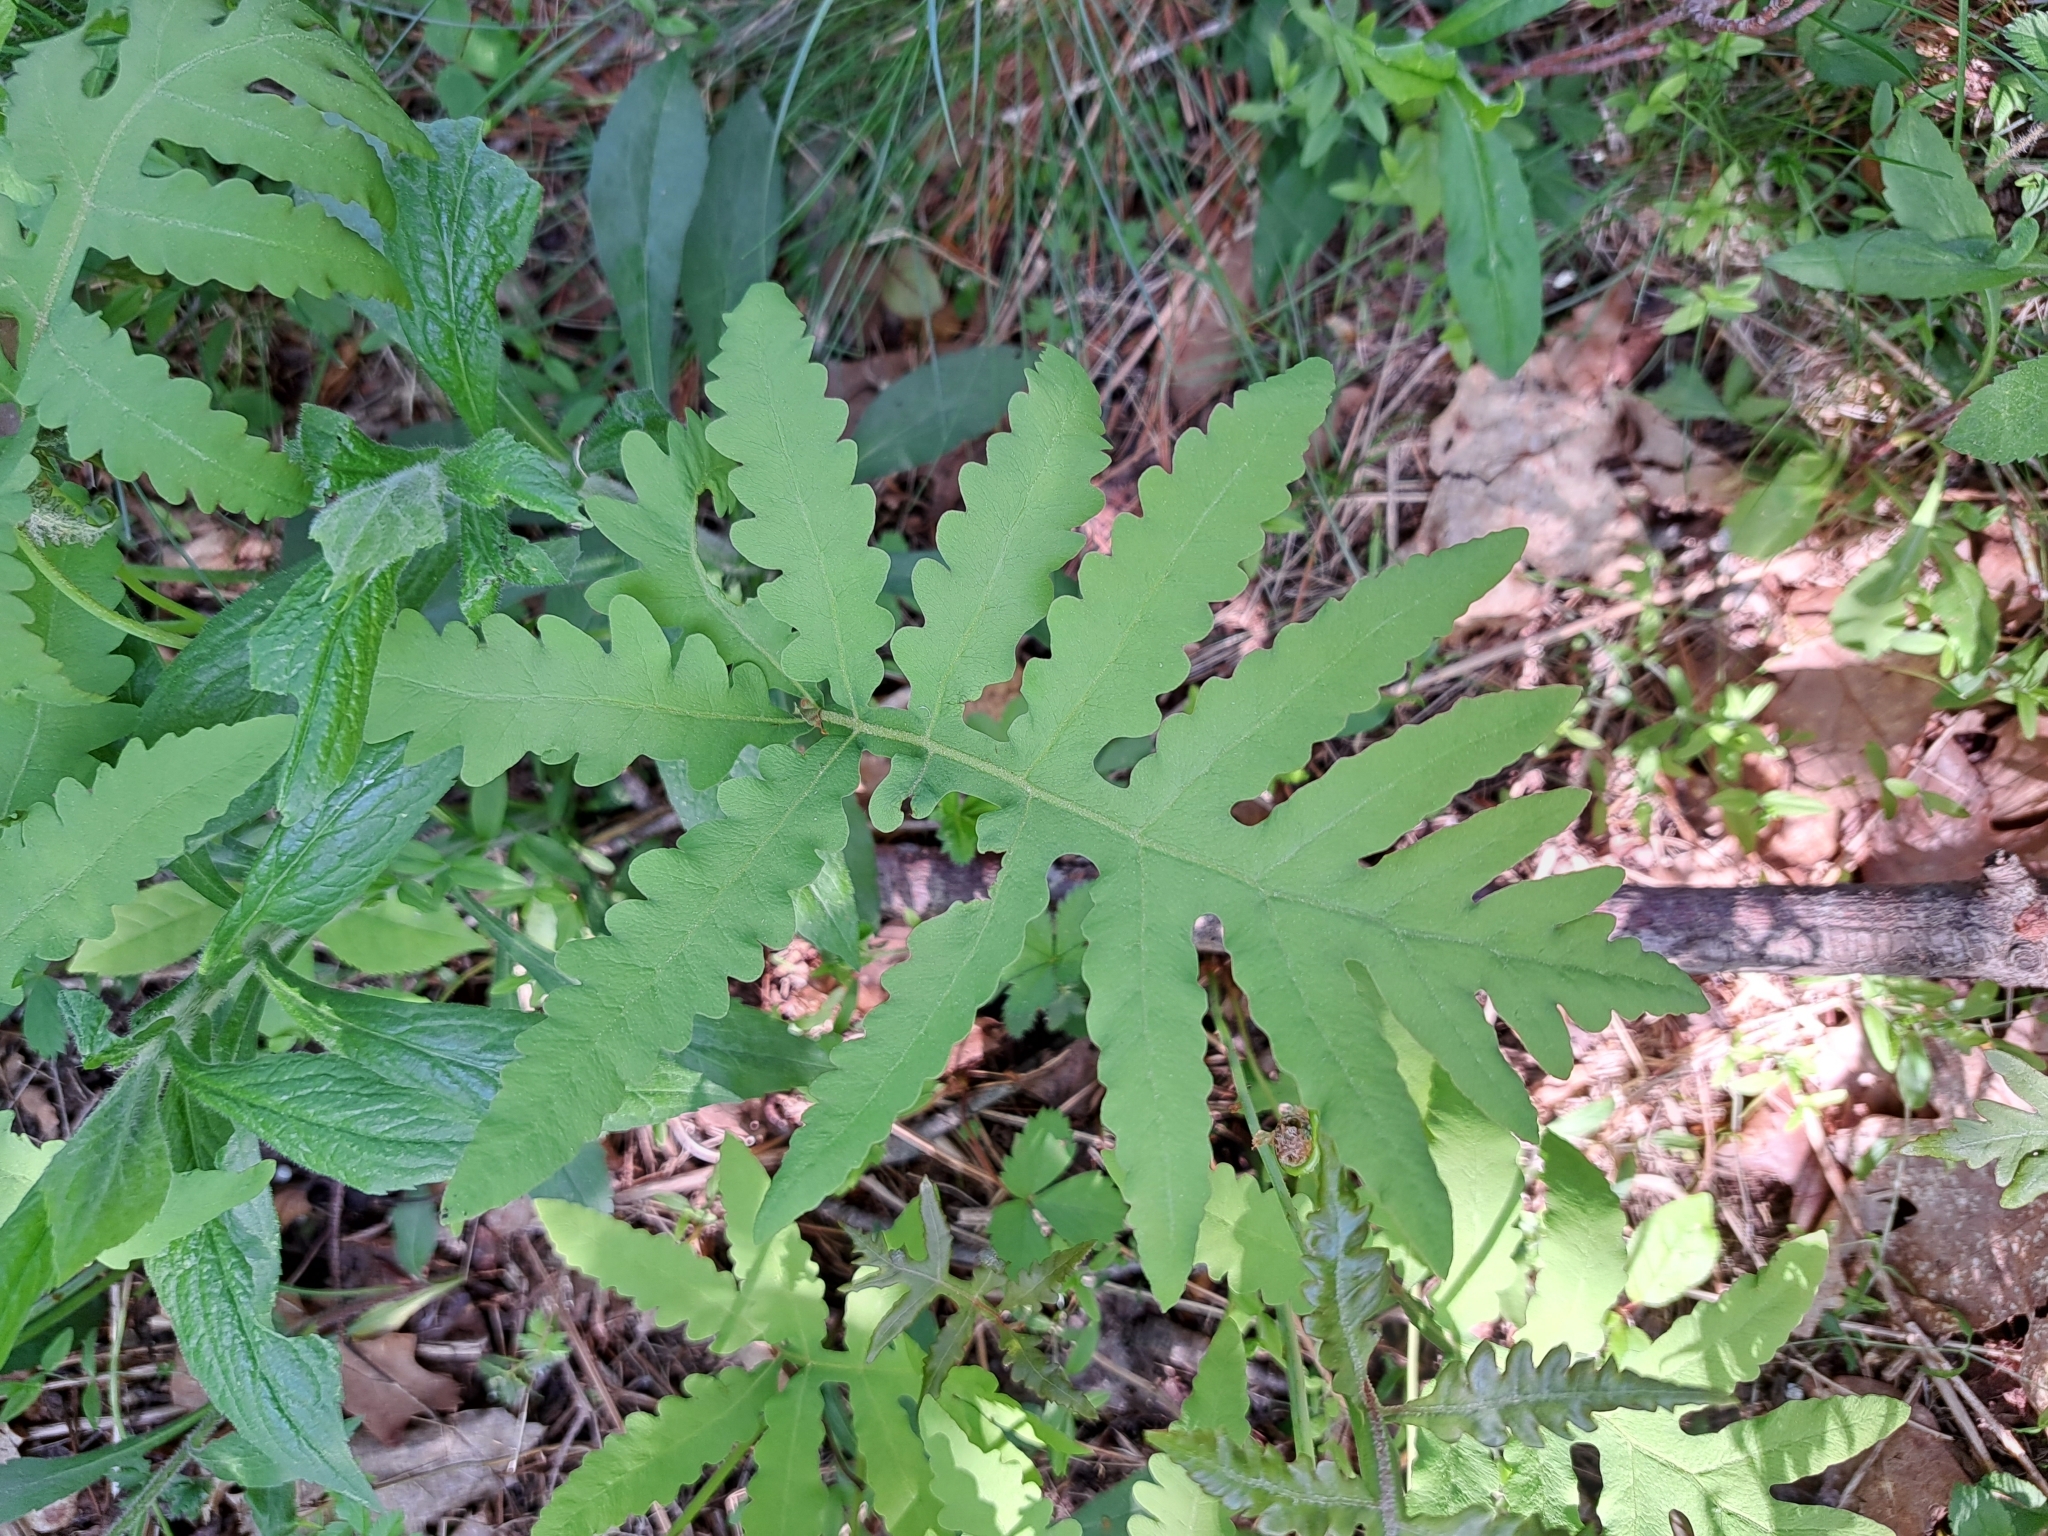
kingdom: Plantae
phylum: Tracheophyta
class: Polypodiopsida
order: Polypodiales
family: Onocleaceae
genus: Onoclea
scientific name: Onoclea sensibilis
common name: Sensitive fern
